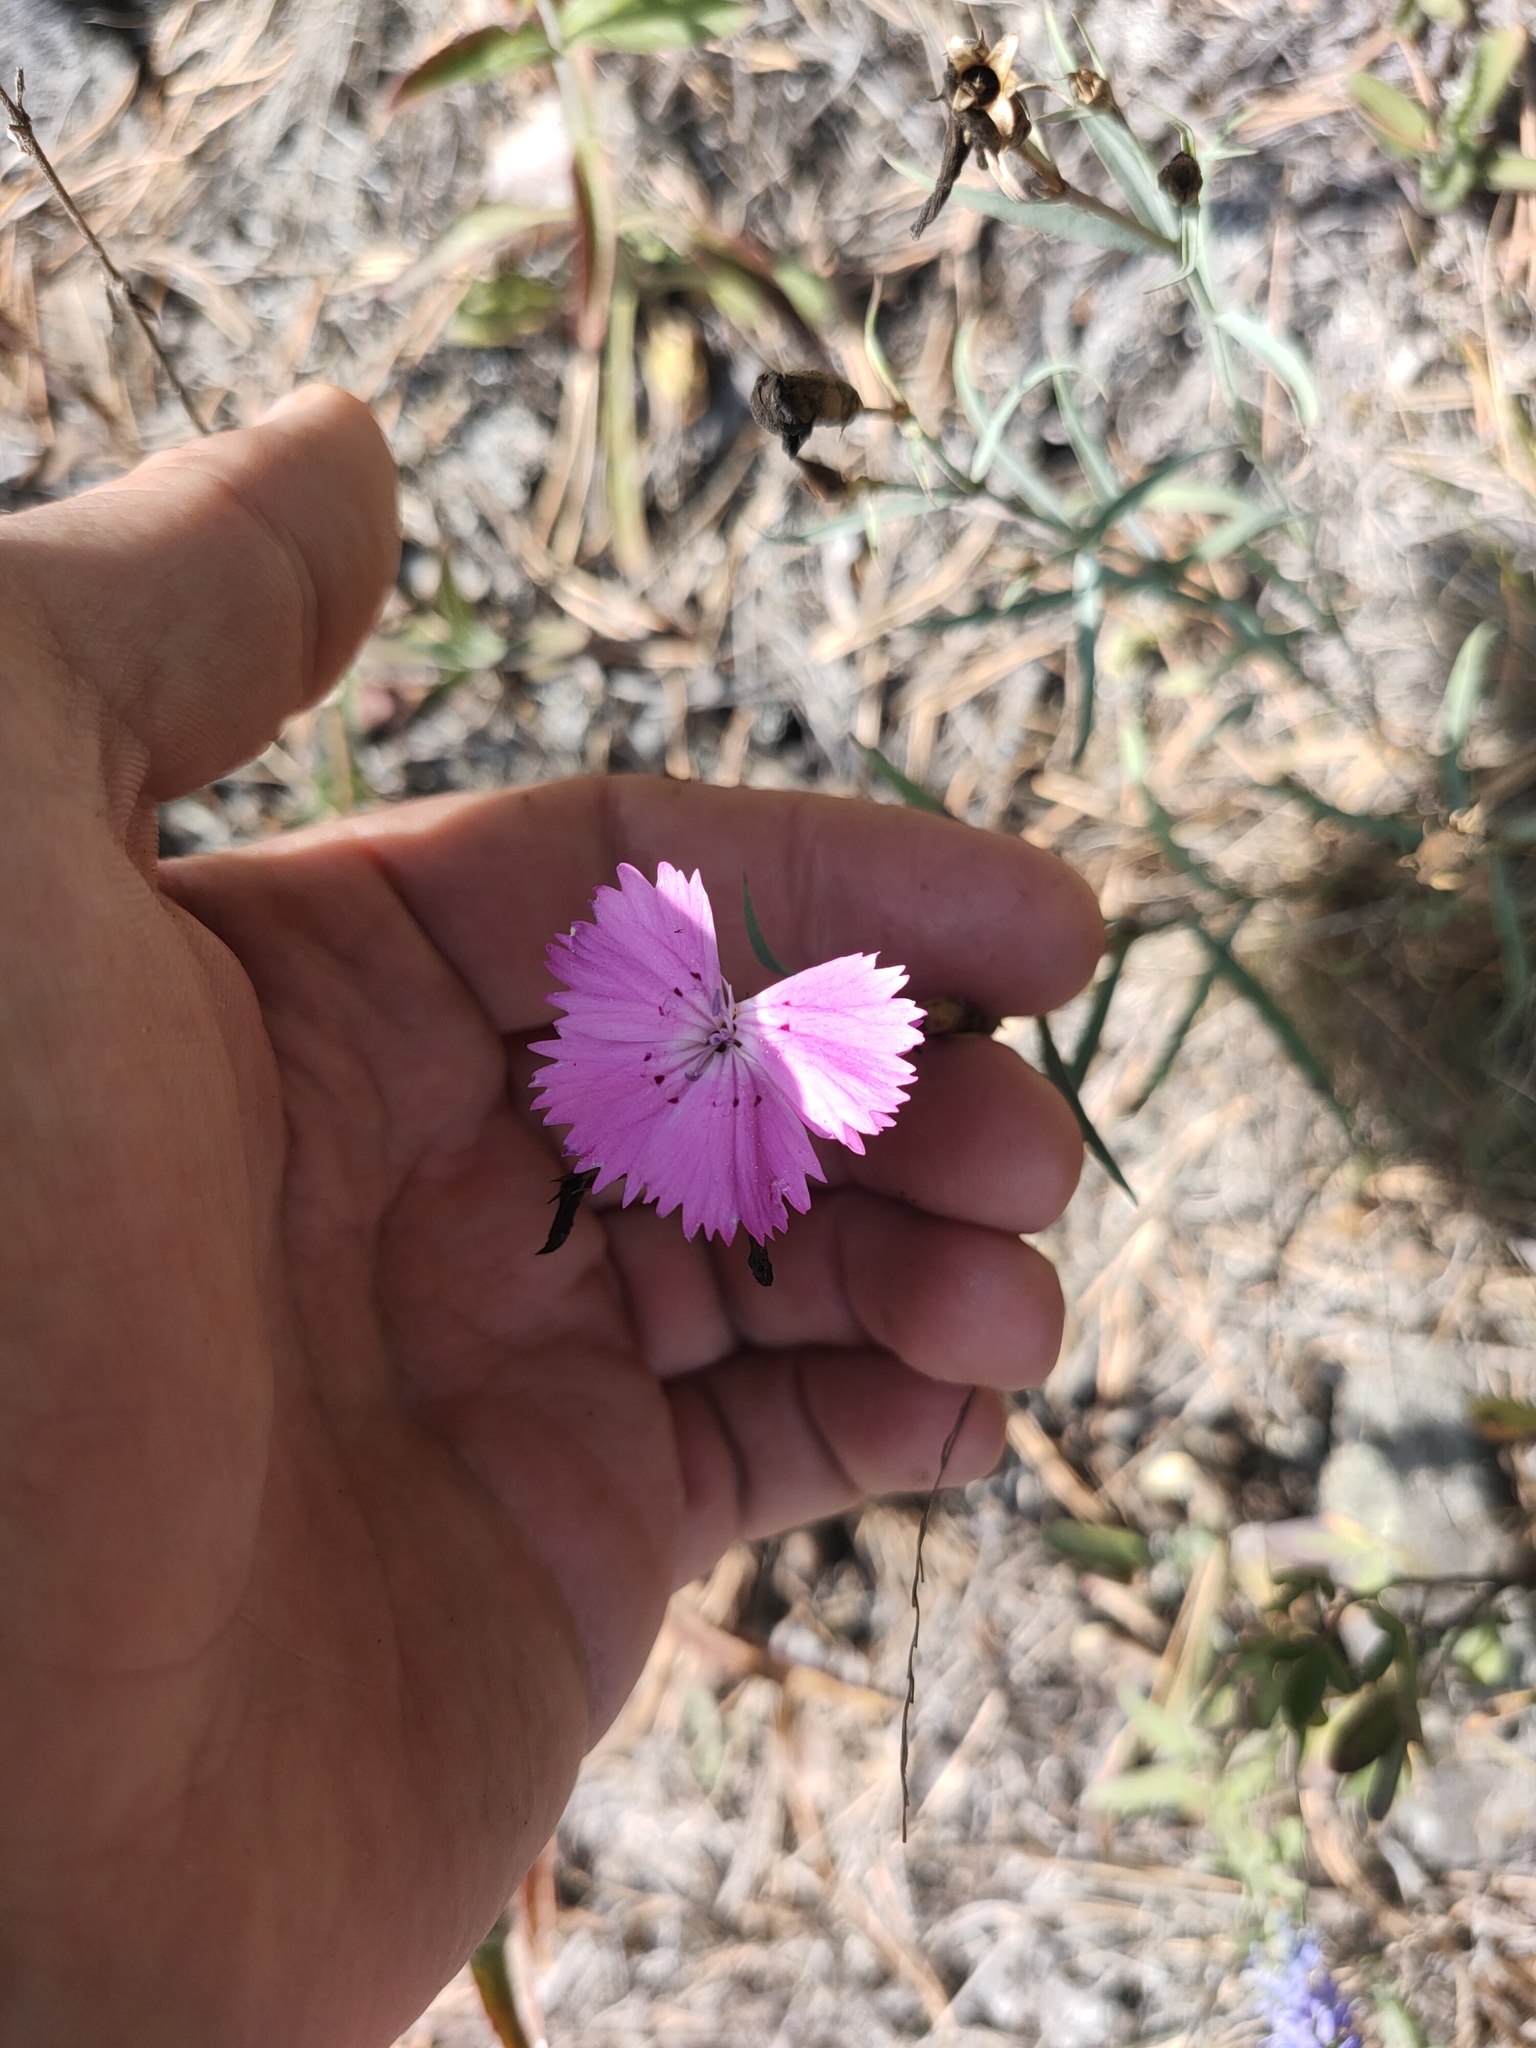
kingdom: Plantae
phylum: Tracheophyta
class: Magnoliopsida
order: Caryophyllales
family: Caryophyllaceae
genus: Dianthus
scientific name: Dianthus chinensis
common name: Rainbow pink
